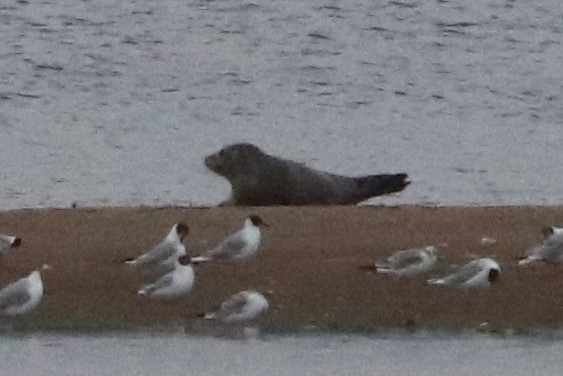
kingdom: Animalia
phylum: Chordata
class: Mammalia
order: Carnivora
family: Phocidae
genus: Phoca
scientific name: Phoca vitulina
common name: Harbor seal
